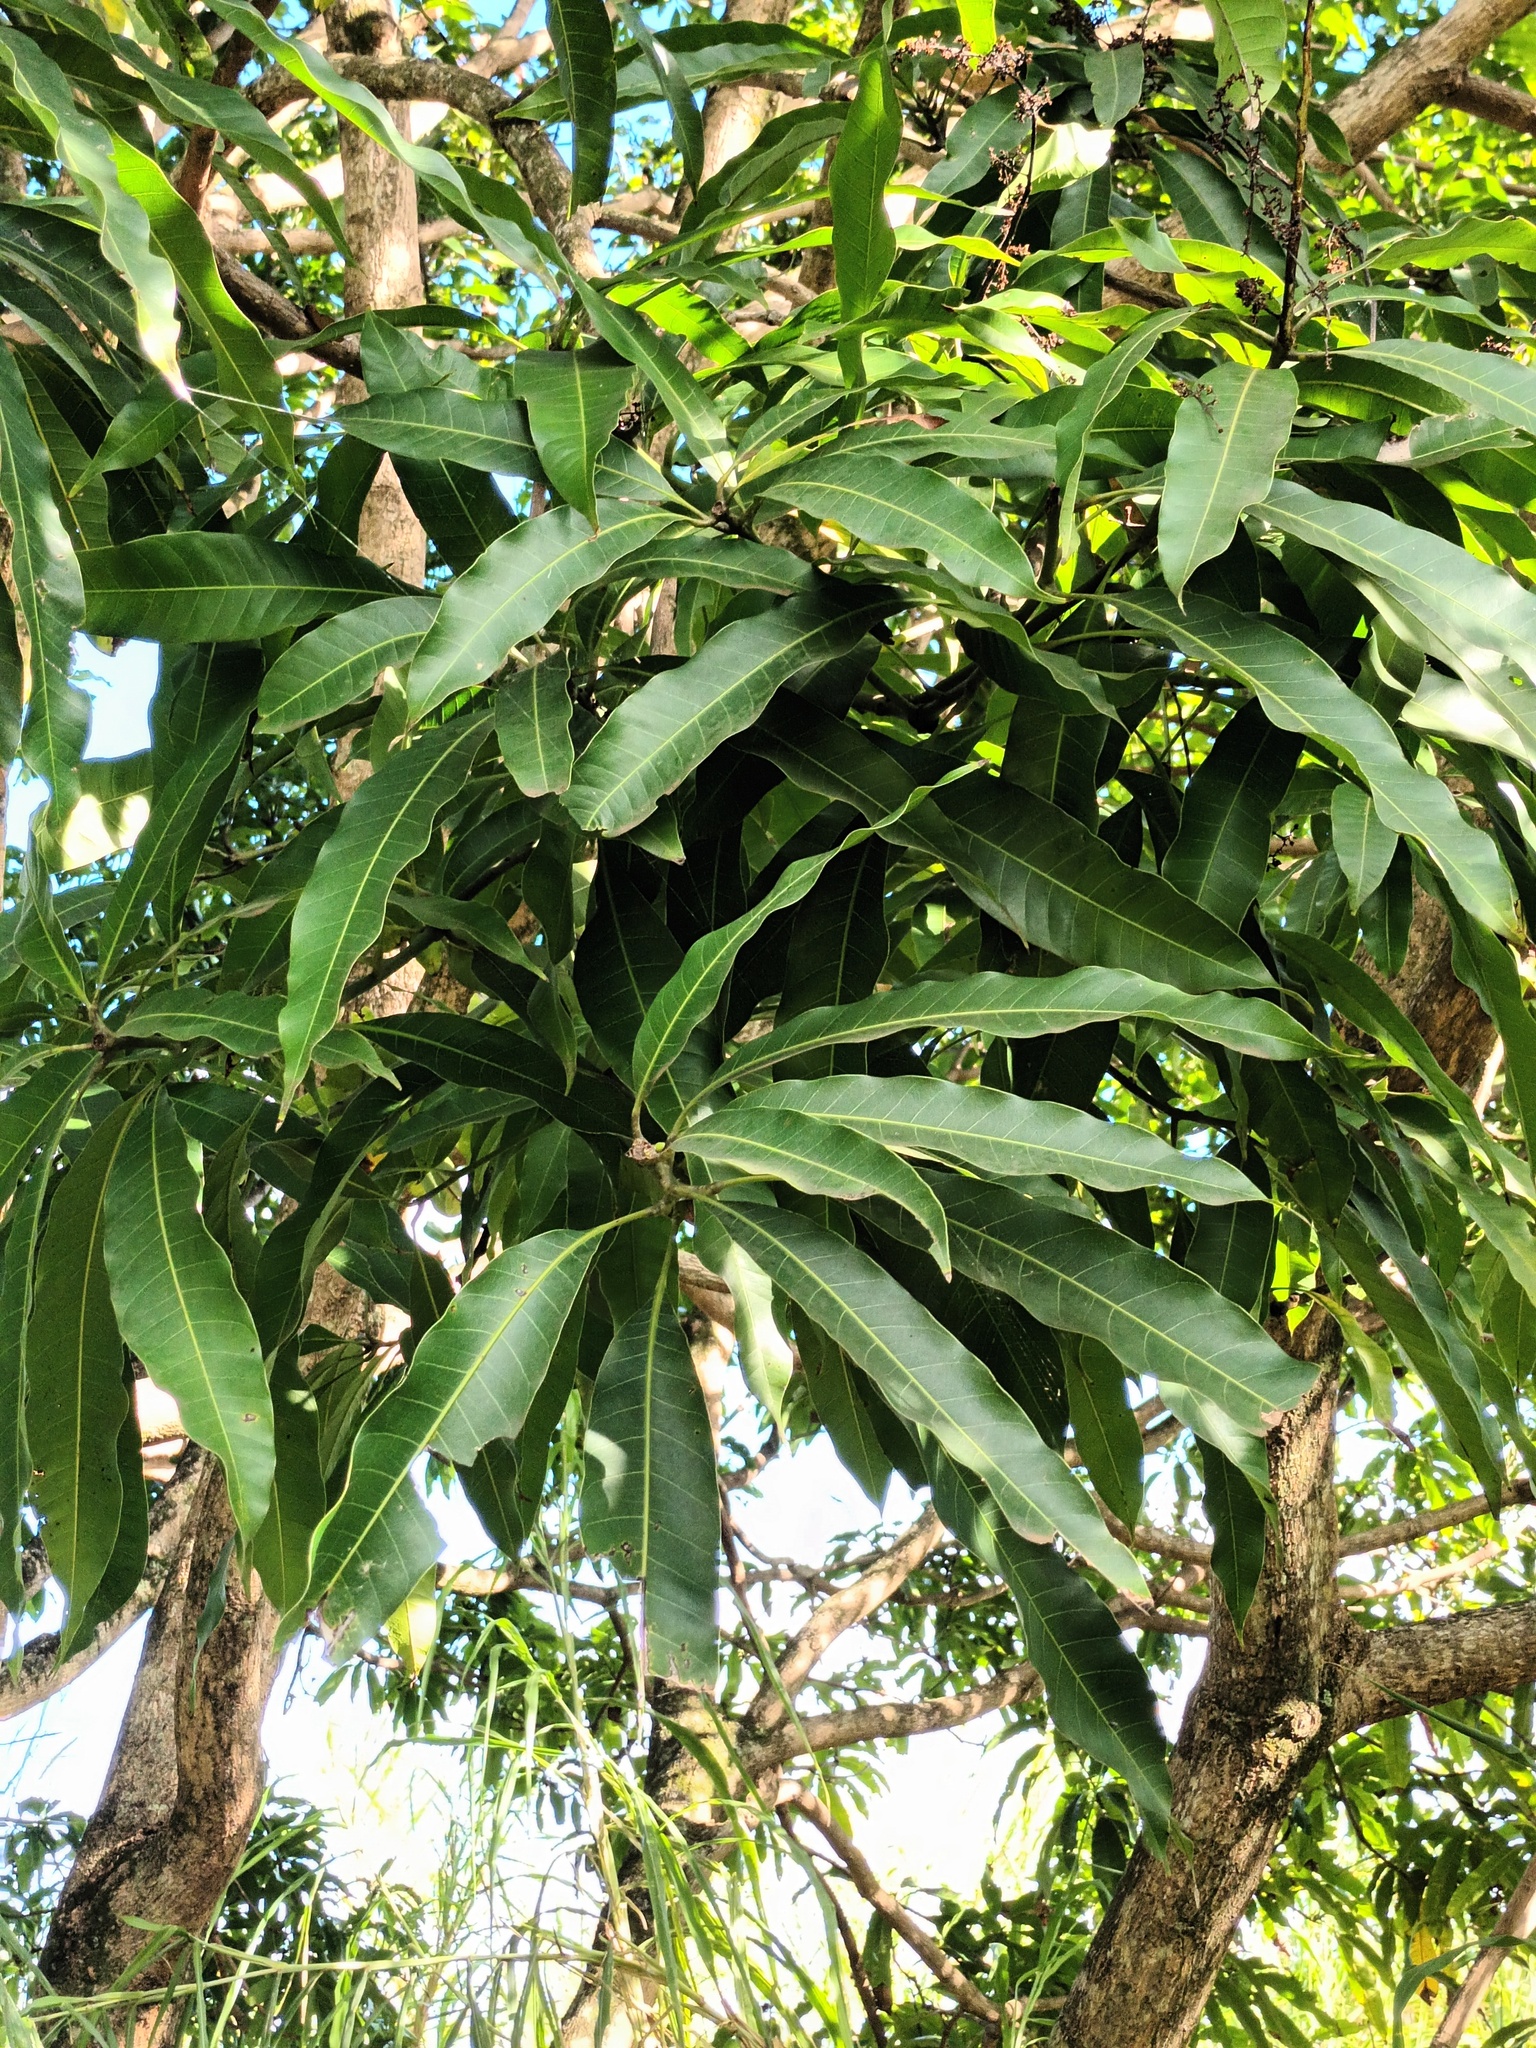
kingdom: Plantae
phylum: Tracheophyta
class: Magnoliopsida
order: Sapindales
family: Anacardiaceae
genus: Mangifera
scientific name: Mangifera indica
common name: Mango
